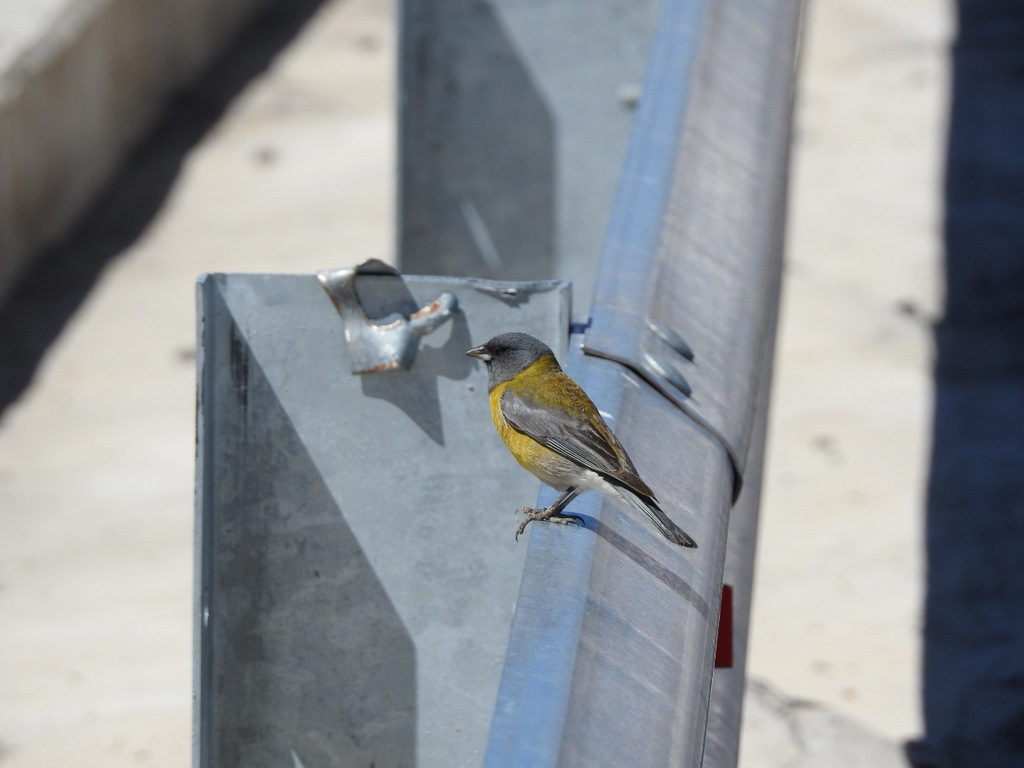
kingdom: Animalia
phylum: Chordata
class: Aves
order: Passeriformes
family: Thraupidae
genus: Phrygilus
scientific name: Phrygilus gayi
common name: Grey-hooded sierra finch
